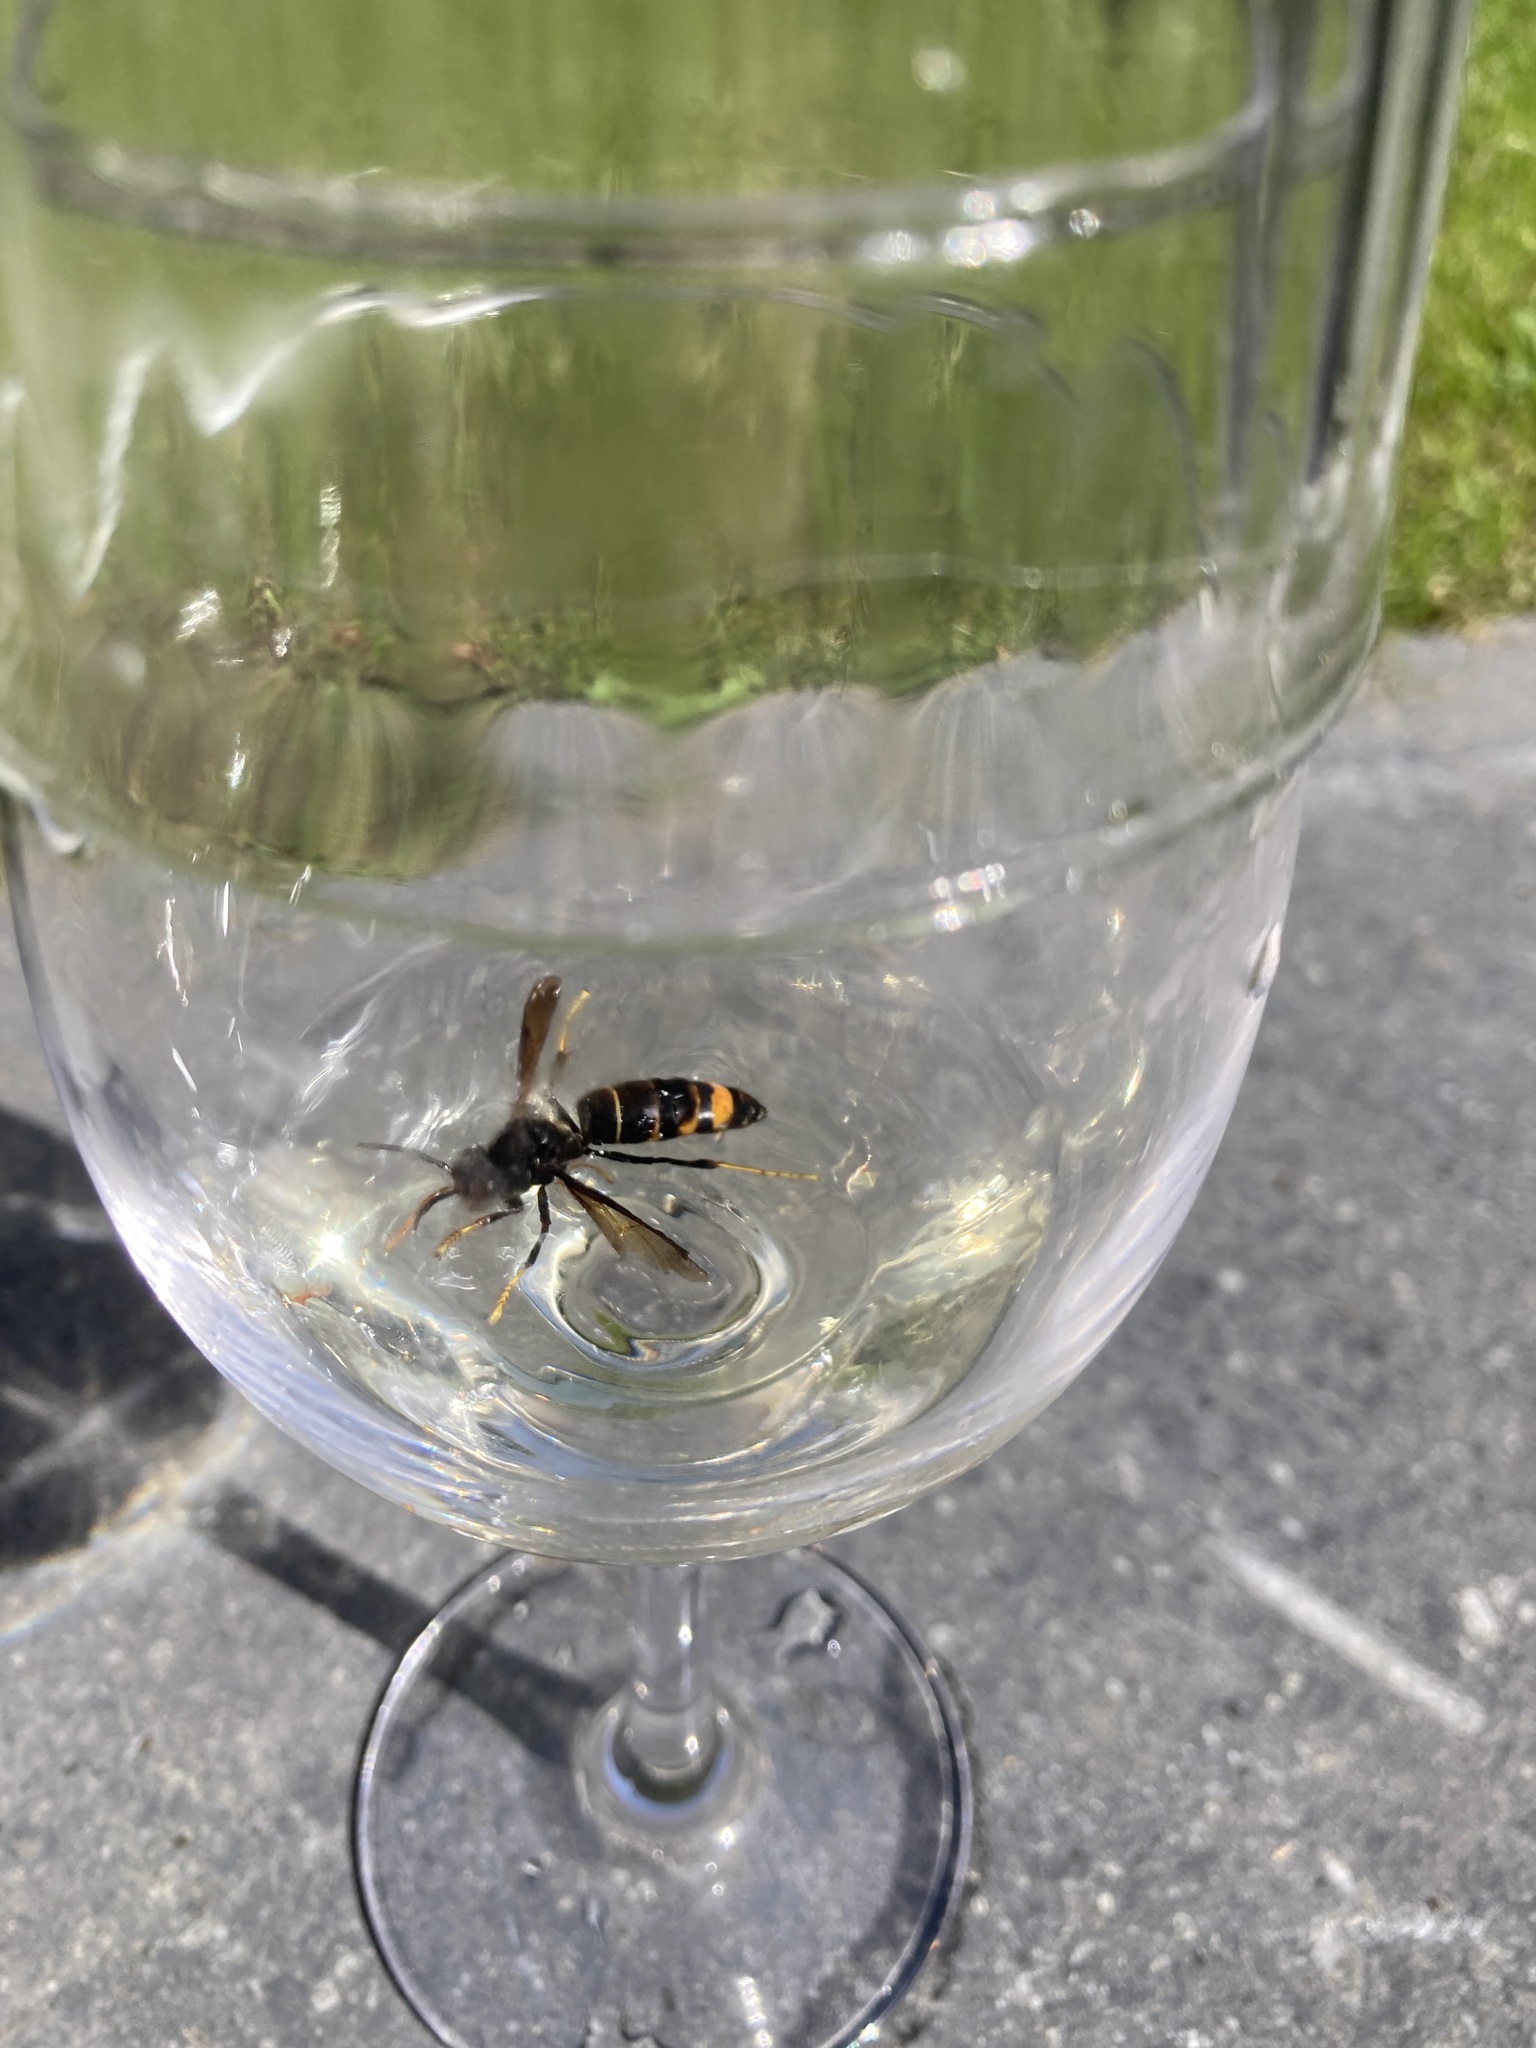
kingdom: Animalia
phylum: Arthropoda
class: Insecta
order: Hymenoptera
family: Vespidae
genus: Vespa
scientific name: Vespa velutina
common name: Asian hornet
